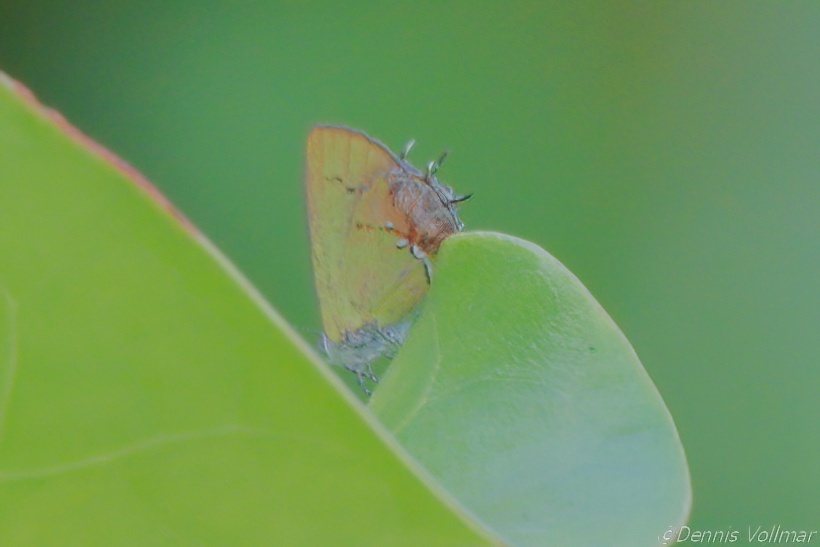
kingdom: Animalia
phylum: Arthropoda
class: Insecta
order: Lepidoptera
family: Lycaenidae
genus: Thecla
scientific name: Thecla maesites
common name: Verde azul hairstreak
